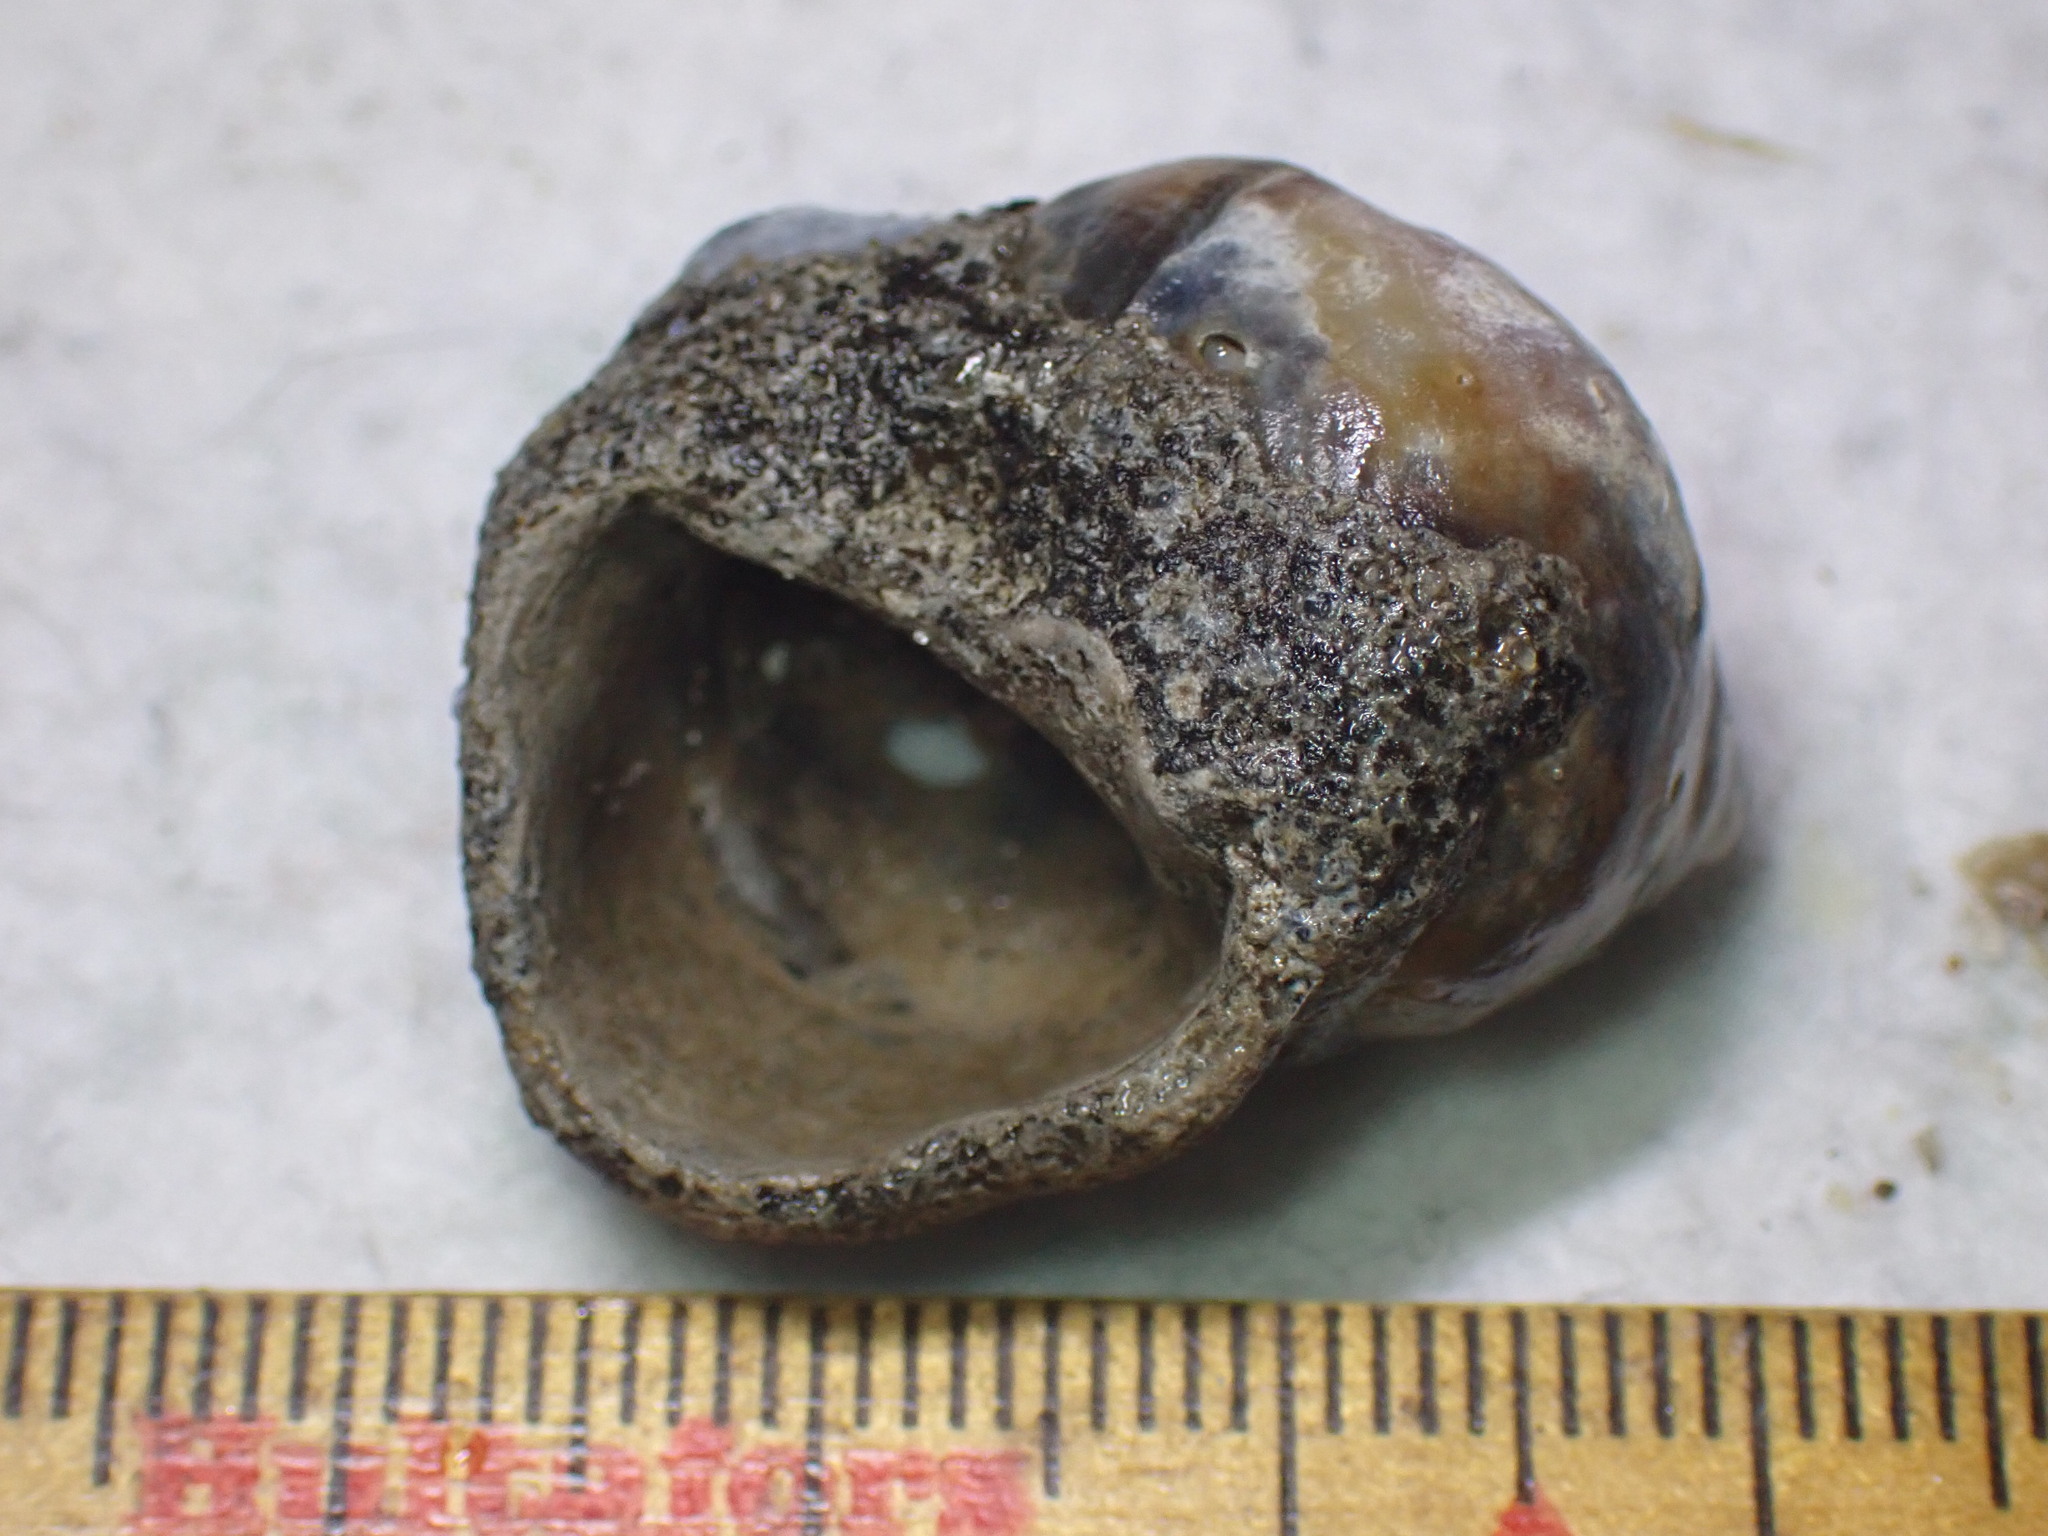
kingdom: Animalia
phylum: Mollusca
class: Gastropoda
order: Littorinimorpha
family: Littorinidae
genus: Littorina
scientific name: Littorina littorea
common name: Common periwinkle
